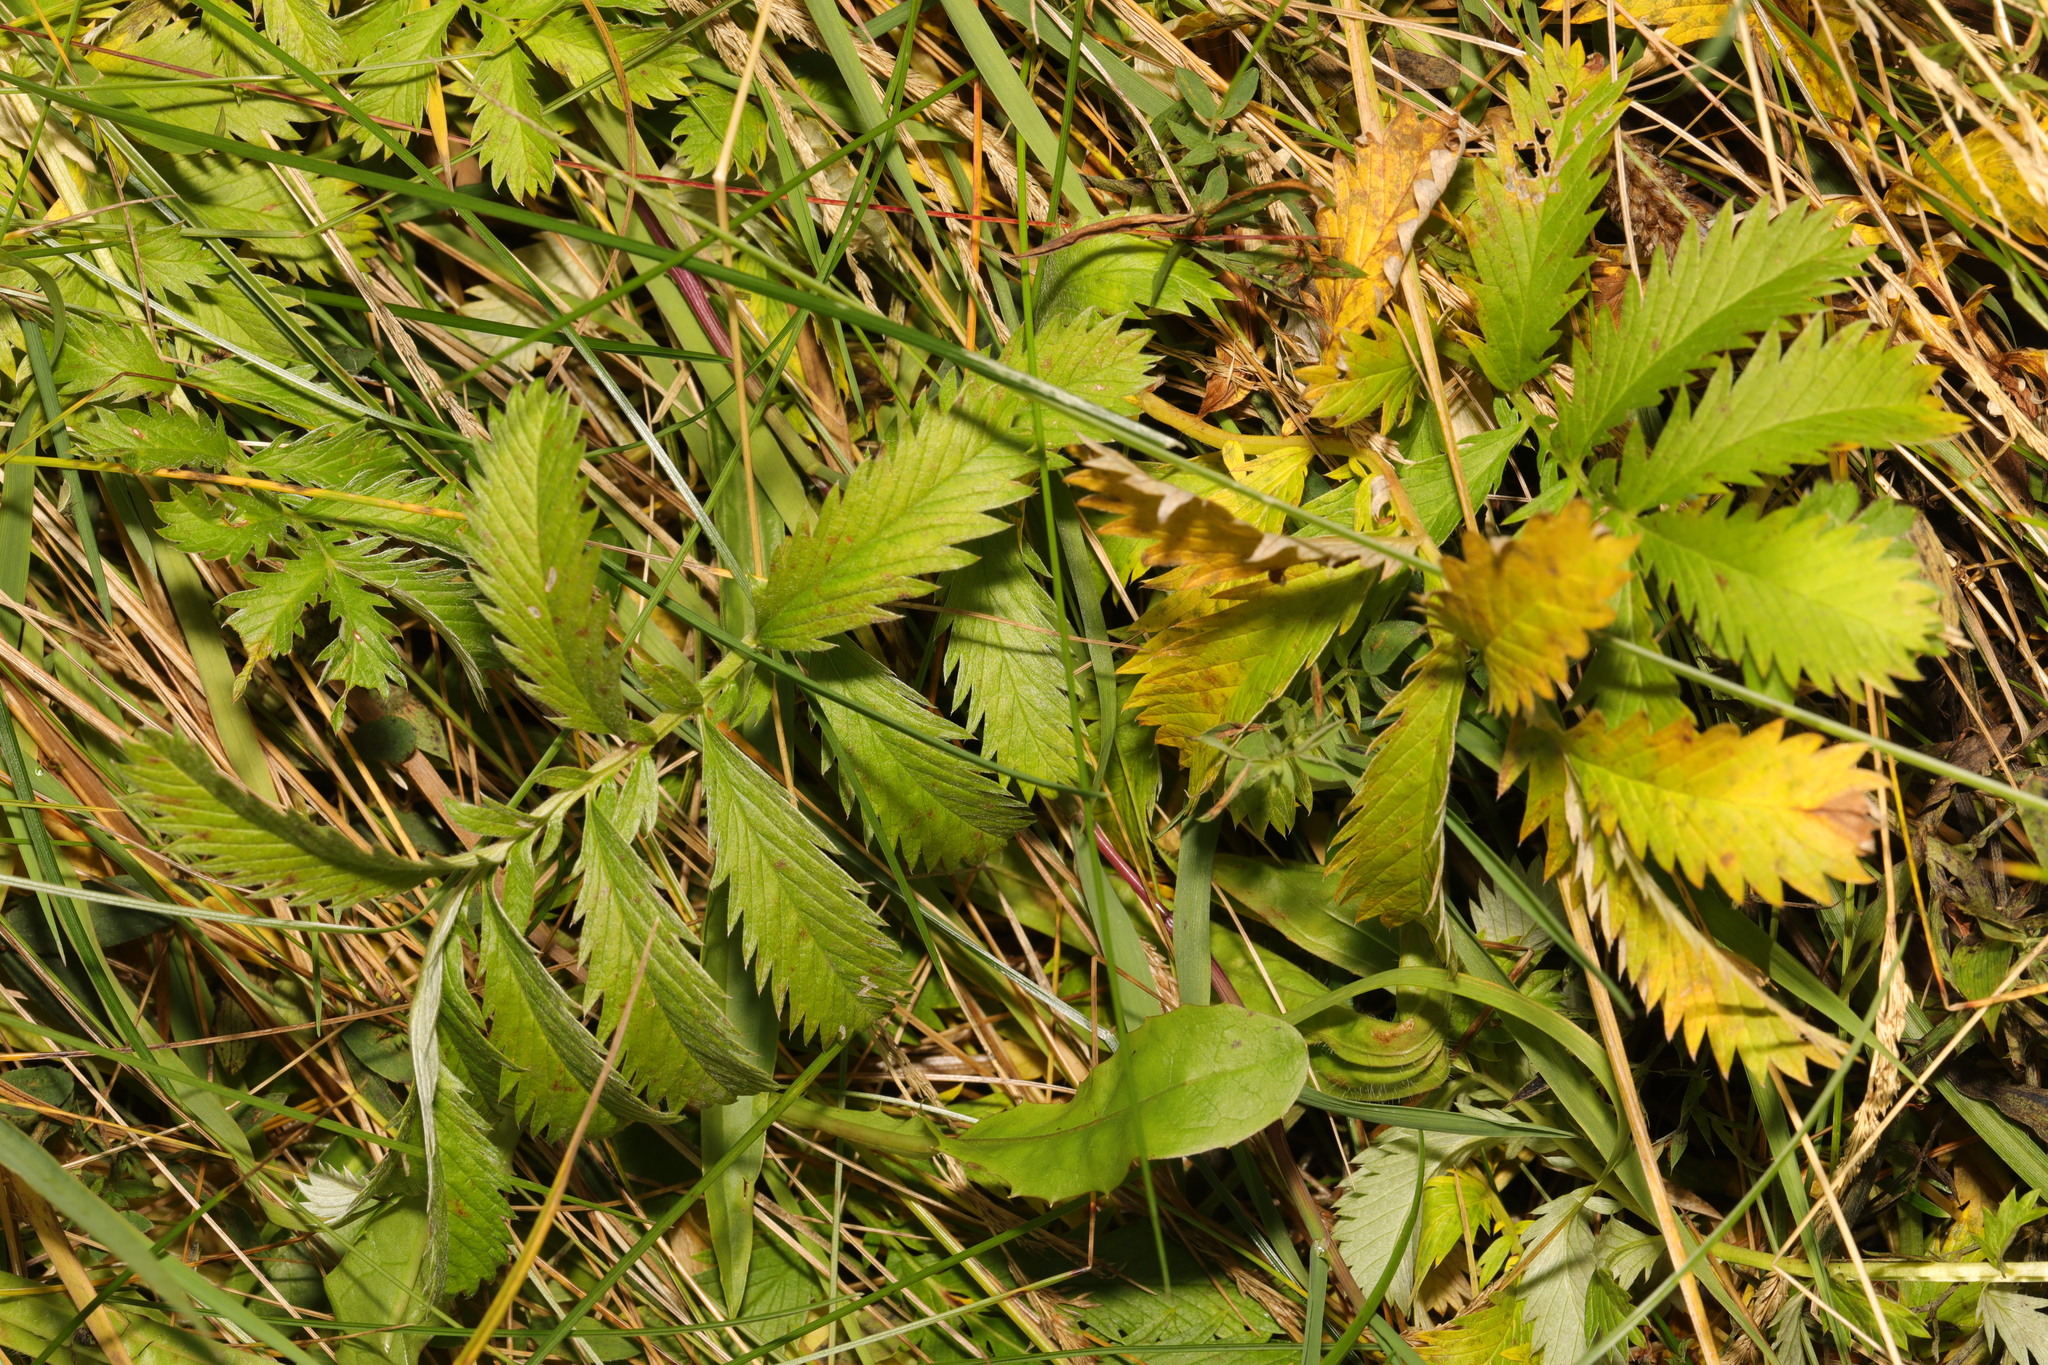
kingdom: Plantae
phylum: Tracheophyta
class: Magnoliopsida
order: Rosales
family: Rosaceae
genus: Argentina
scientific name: Argentina anserina
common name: Common silverweed
